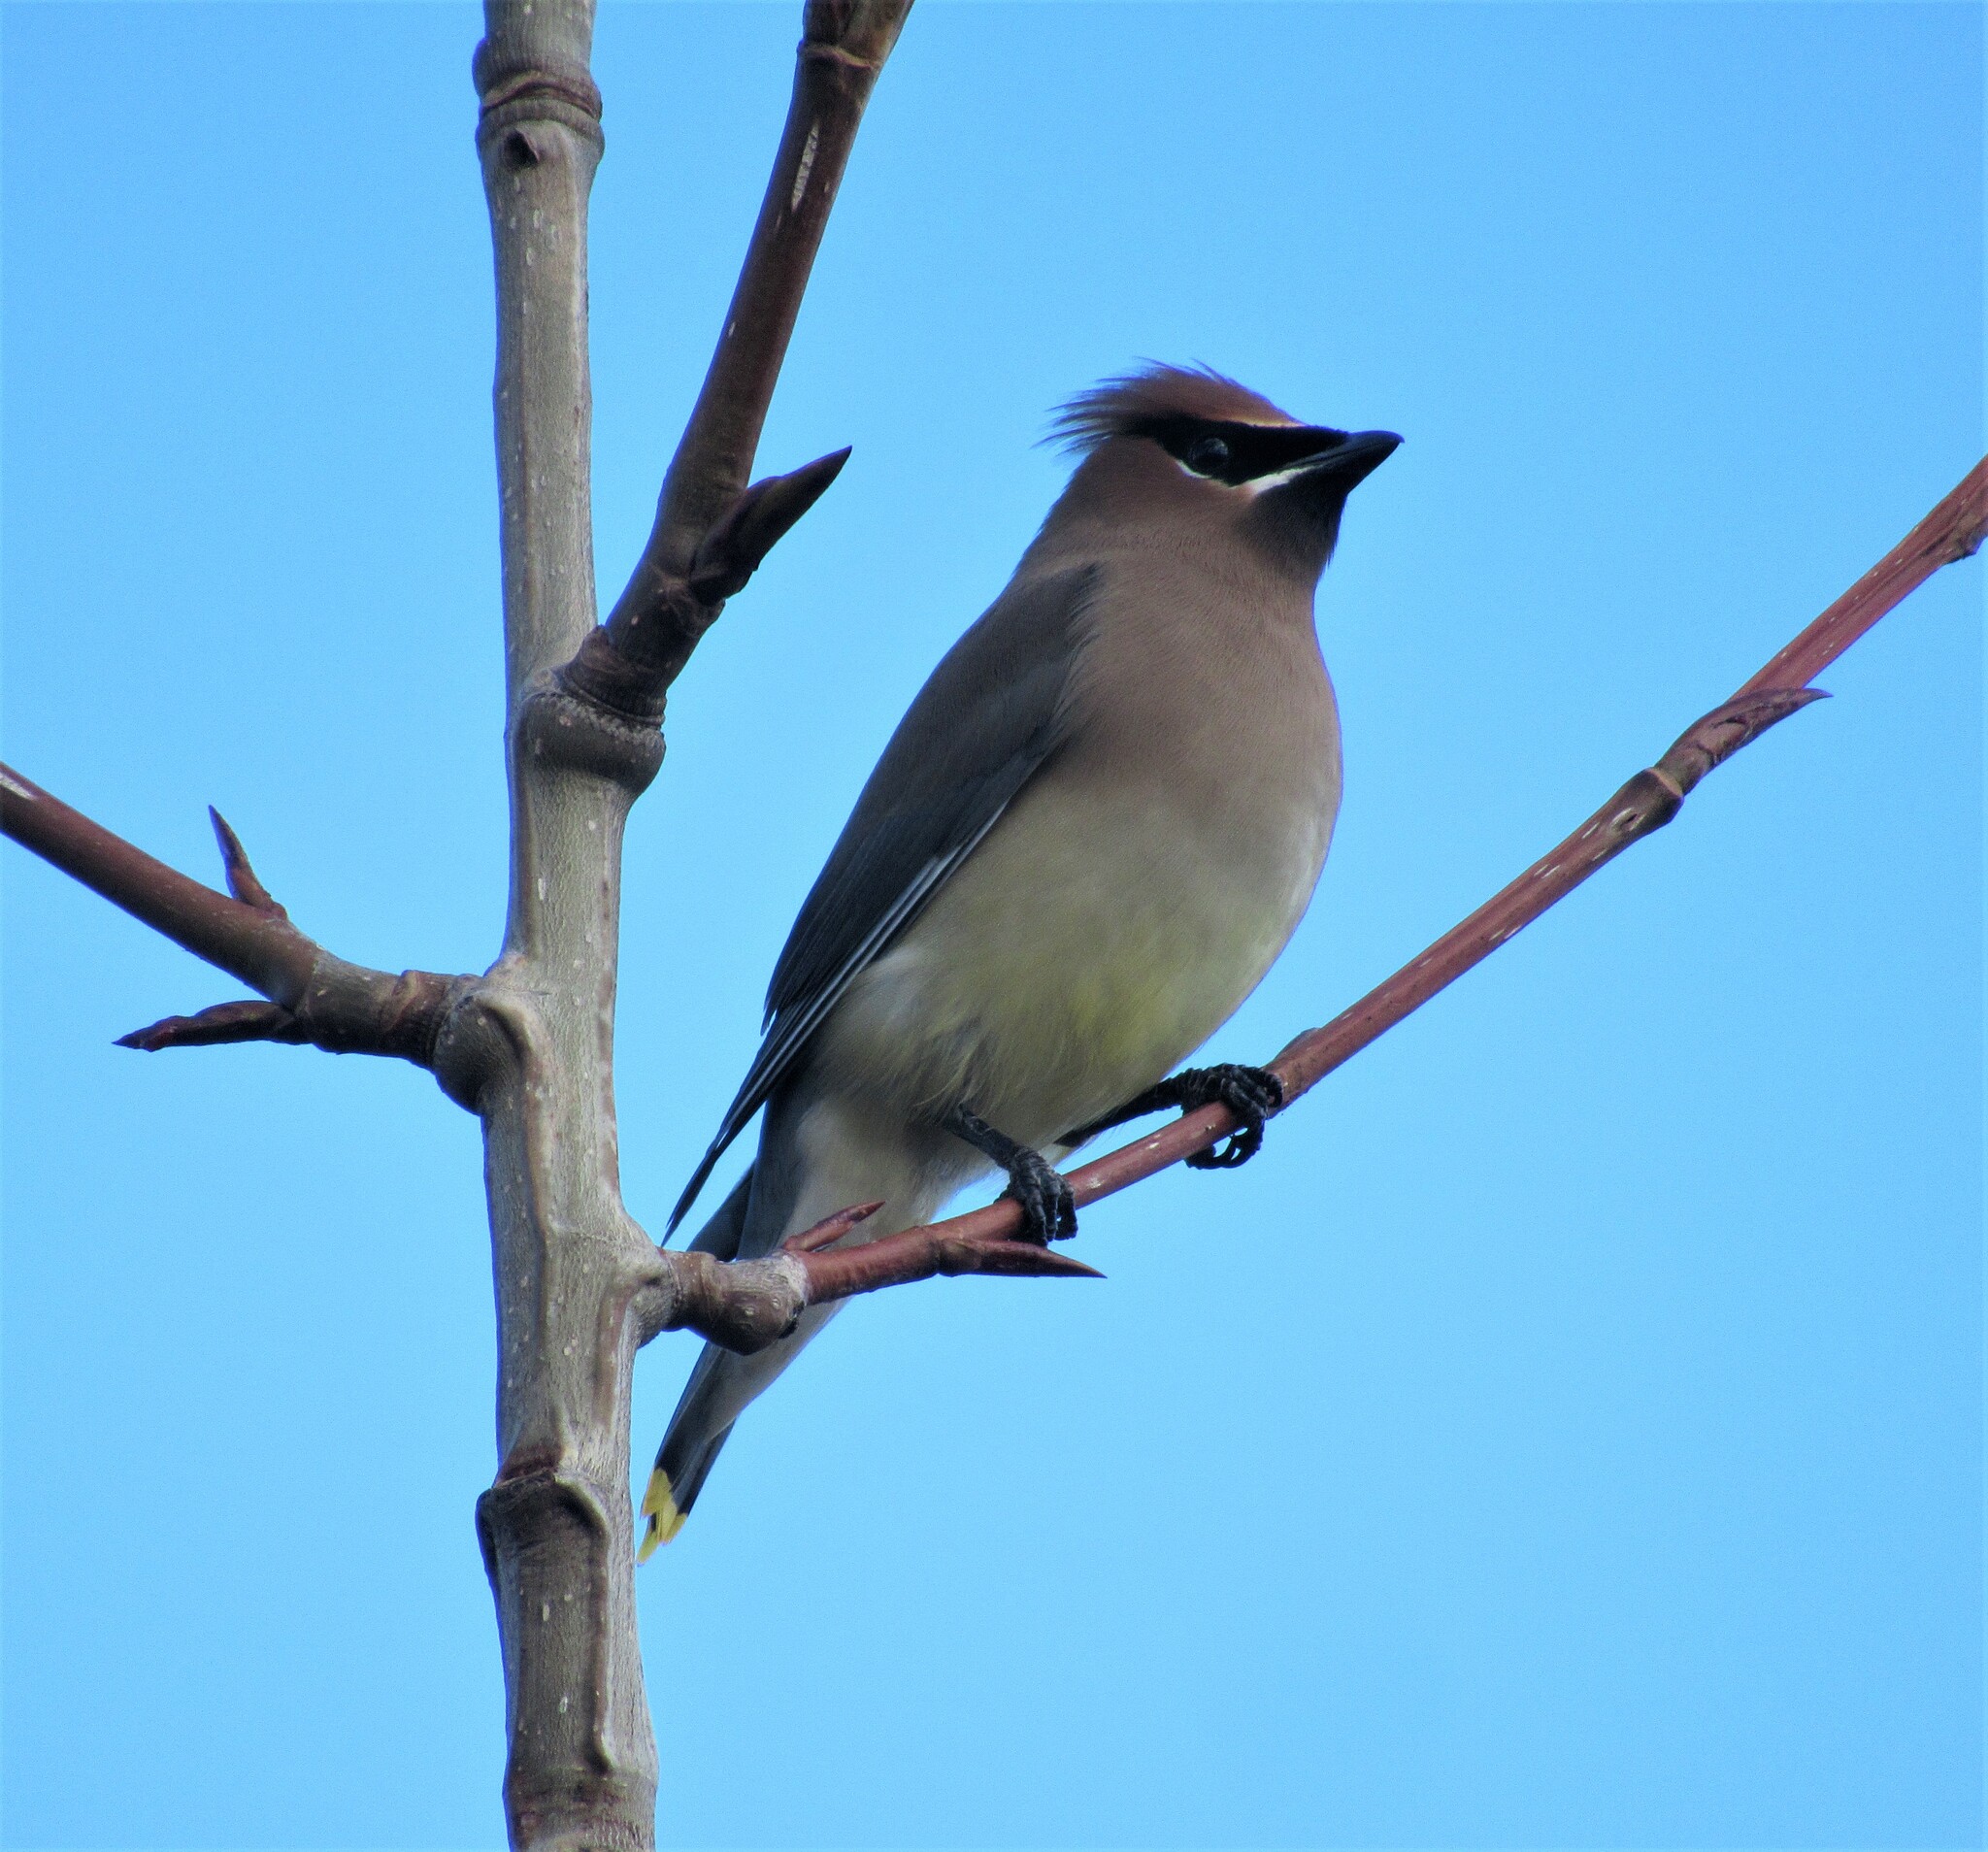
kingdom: Animalia
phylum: Chordata
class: Aves
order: Passeriformes
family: Bombycillidae
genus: Bombycilla
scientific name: Bombycilla cedrorum
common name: Cedar waxwing
